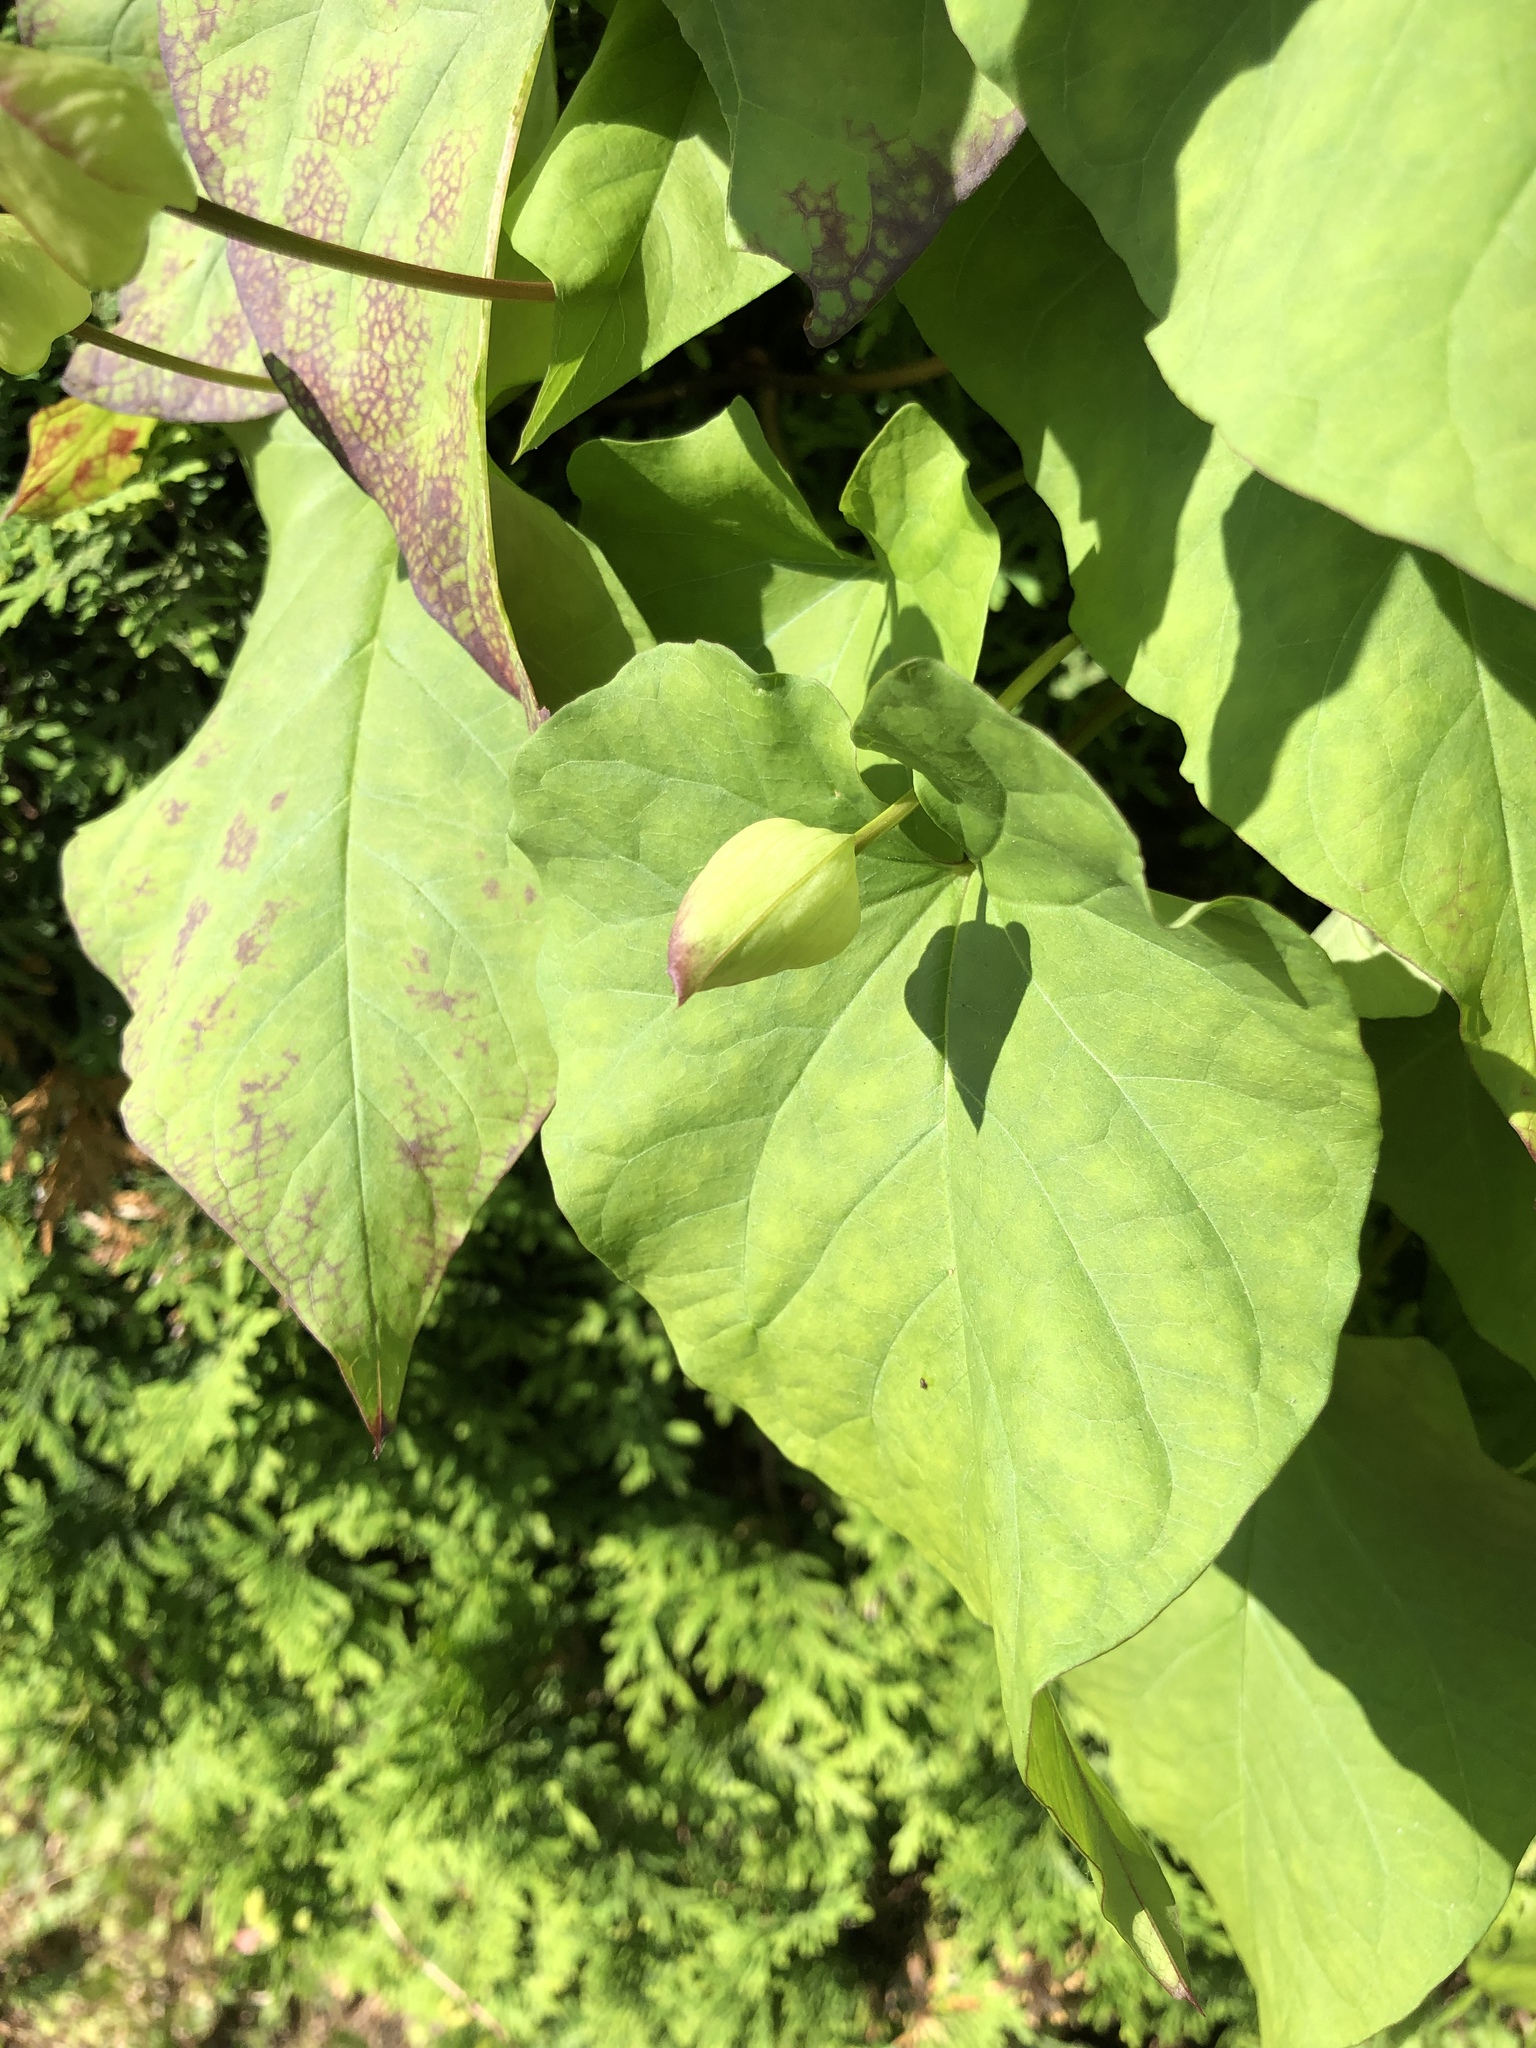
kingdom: Plantae
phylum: Tracheophyta
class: Magnoliopsida
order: Solanales
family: Convolvulaceae
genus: Calystegia
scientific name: Calystegia silvatica
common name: Large bindweed
